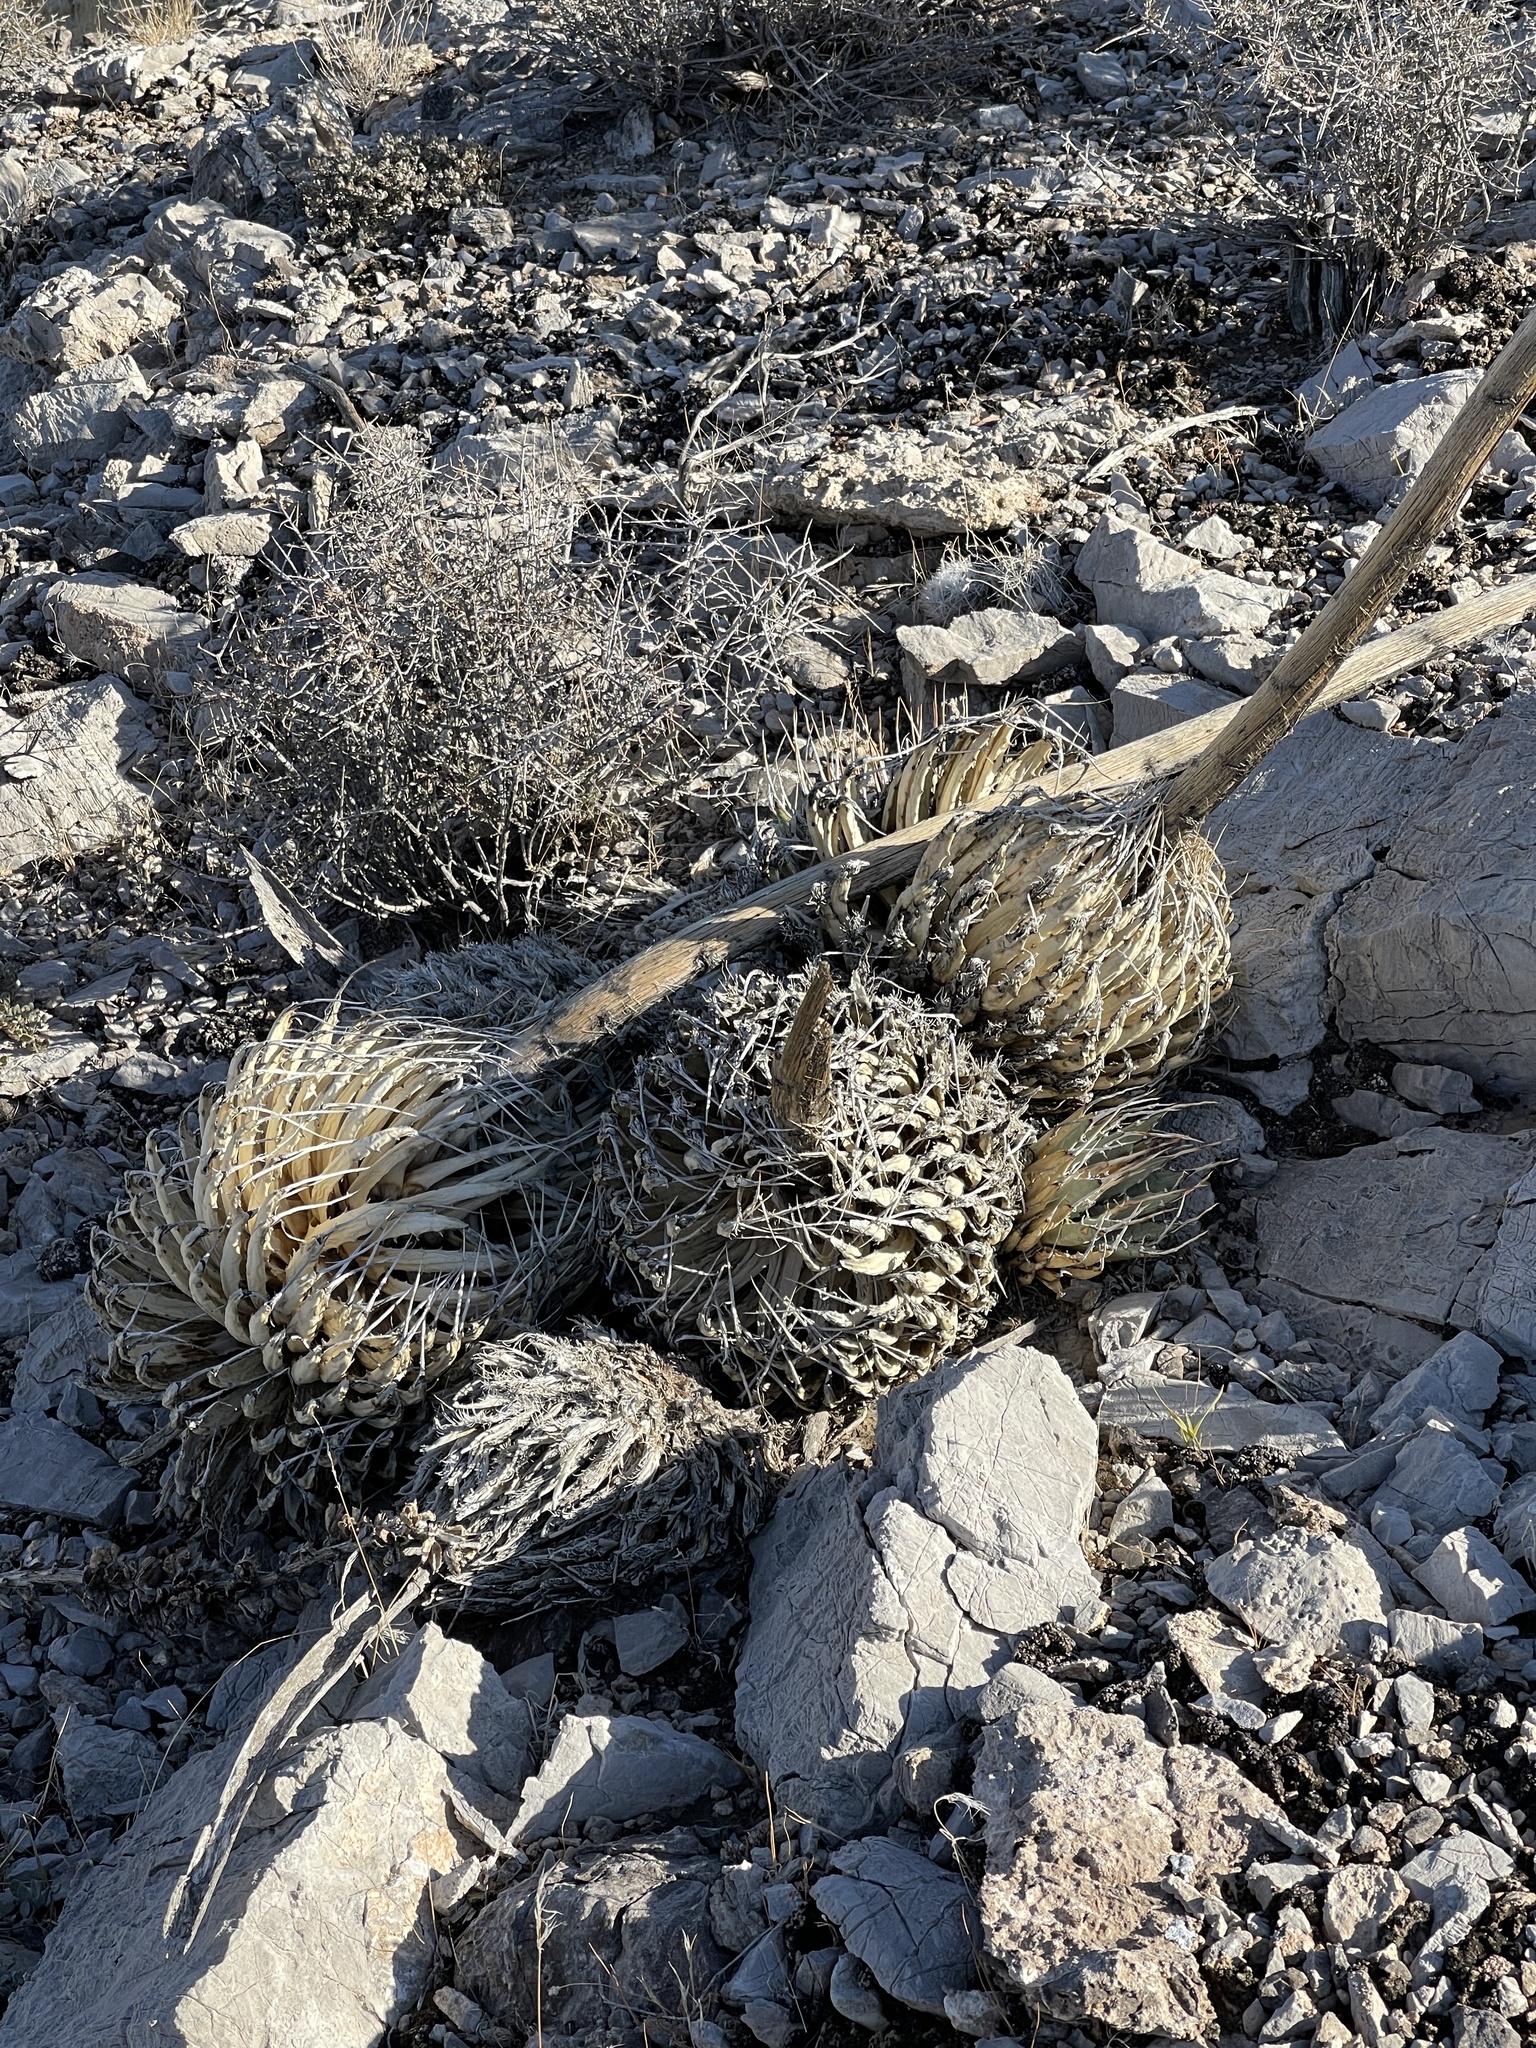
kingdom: Plantae
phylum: Tracheophyta
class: Liliopsida
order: Asparagales
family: Asparagaceae
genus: Agave
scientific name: Agave utahensis
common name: Utah agave
